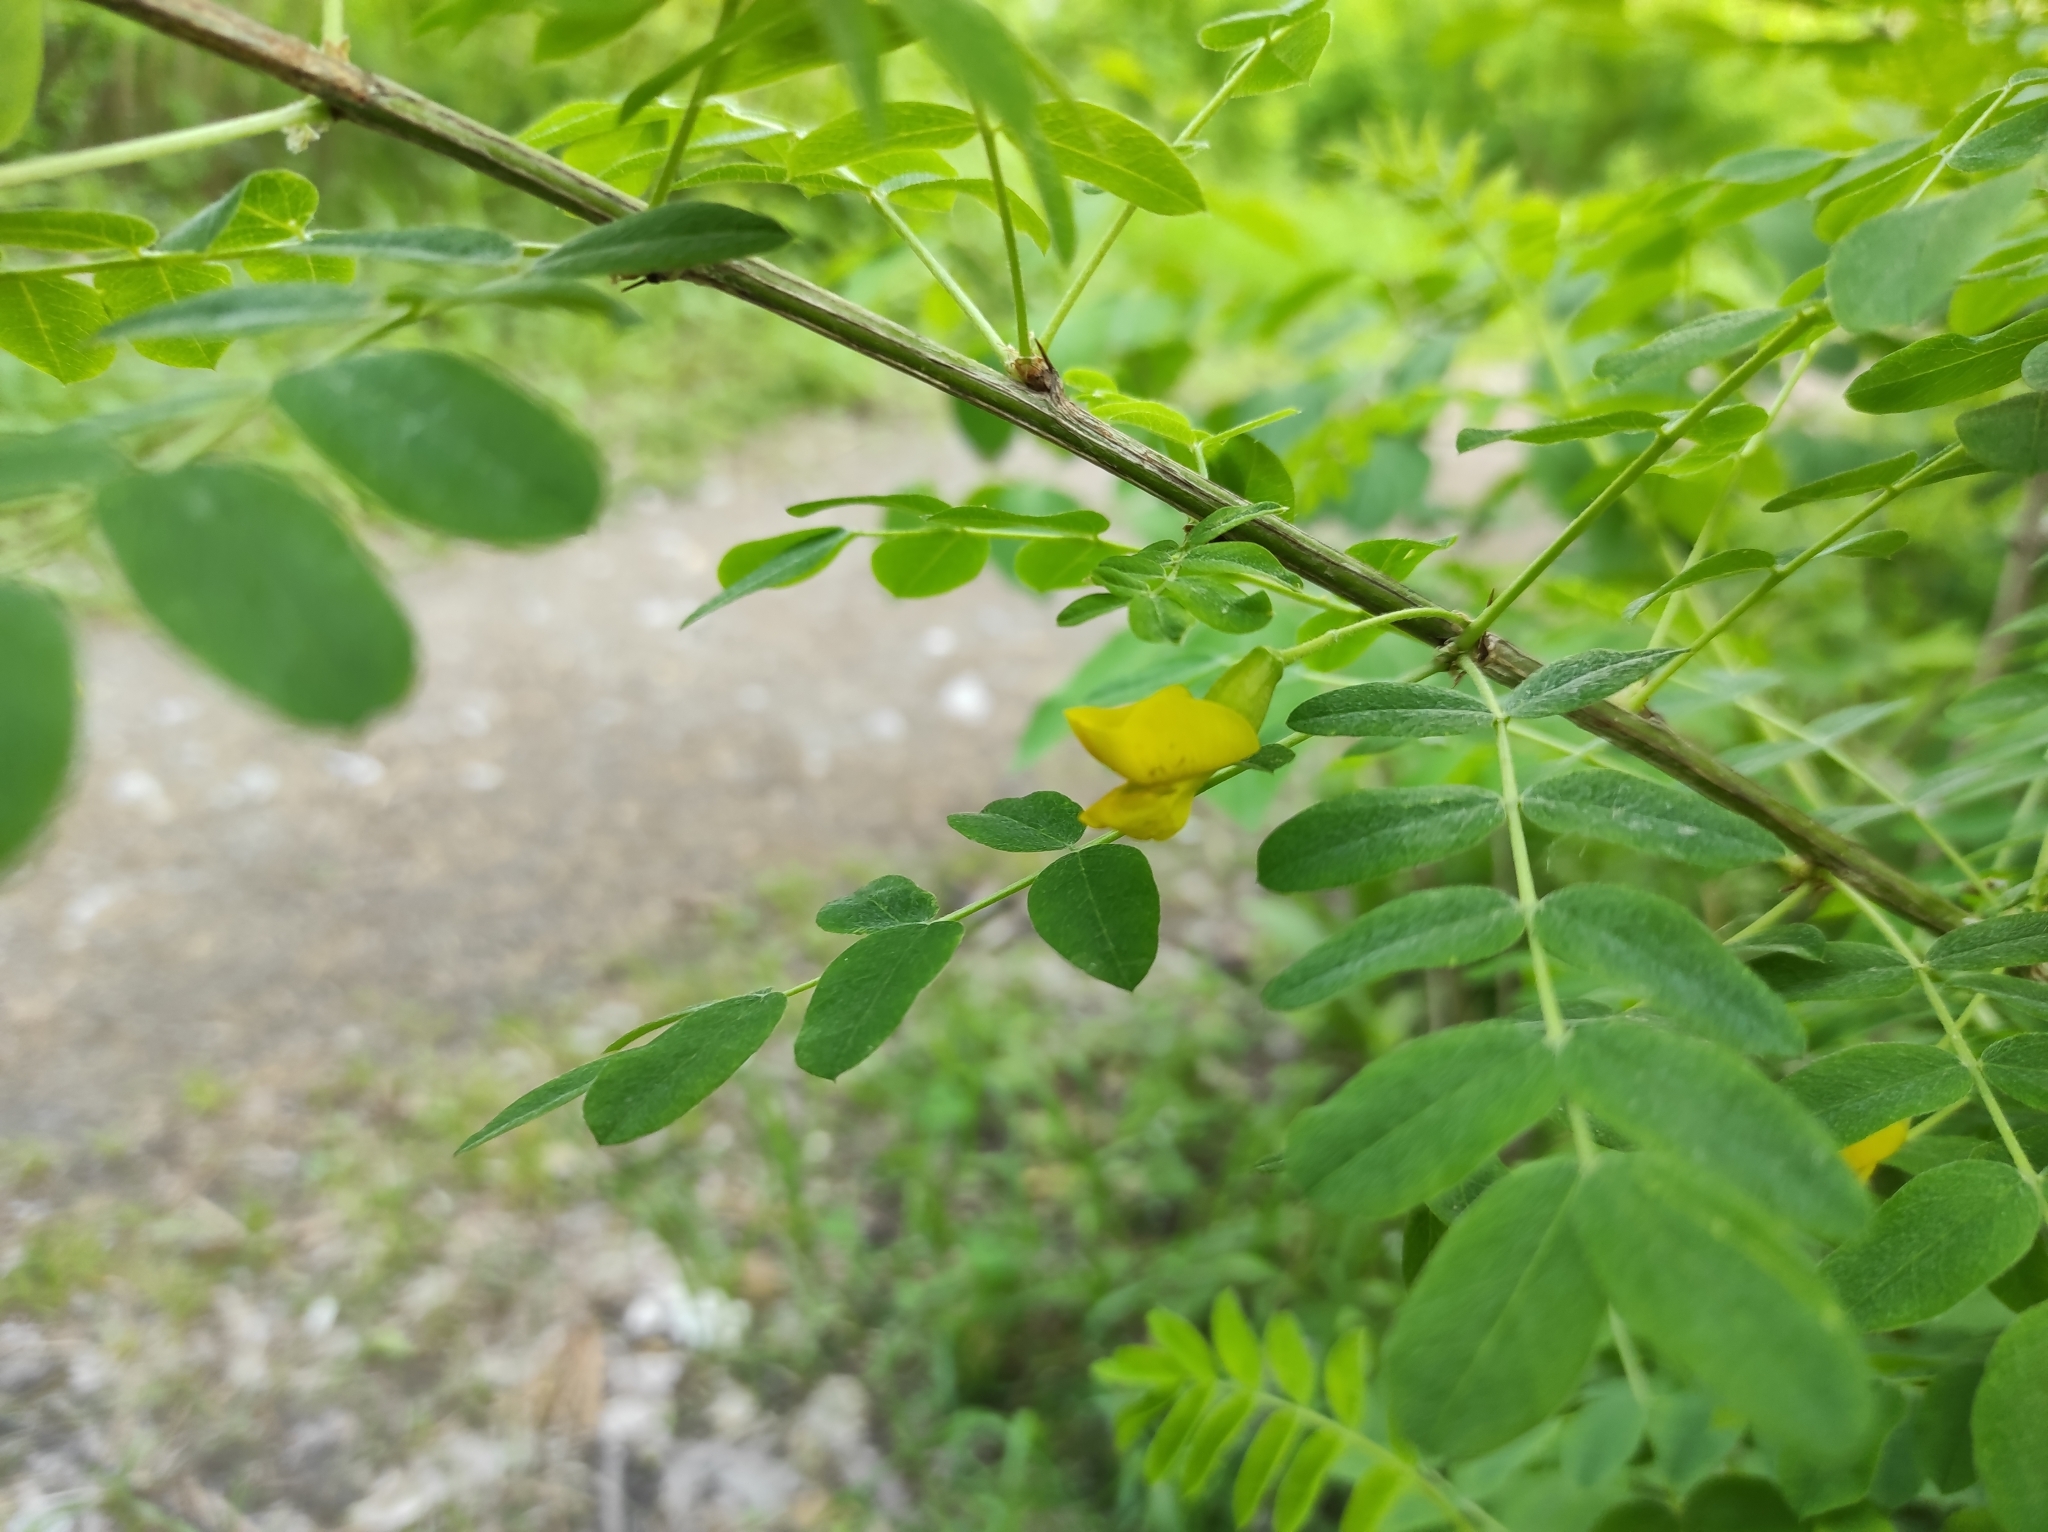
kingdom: Plantae
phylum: Tracheophyta
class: Magnoliopsida
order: Fabales
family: Fabaceae
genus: Caragana
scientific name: Caragana arborescens
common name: Siberian peashrub
